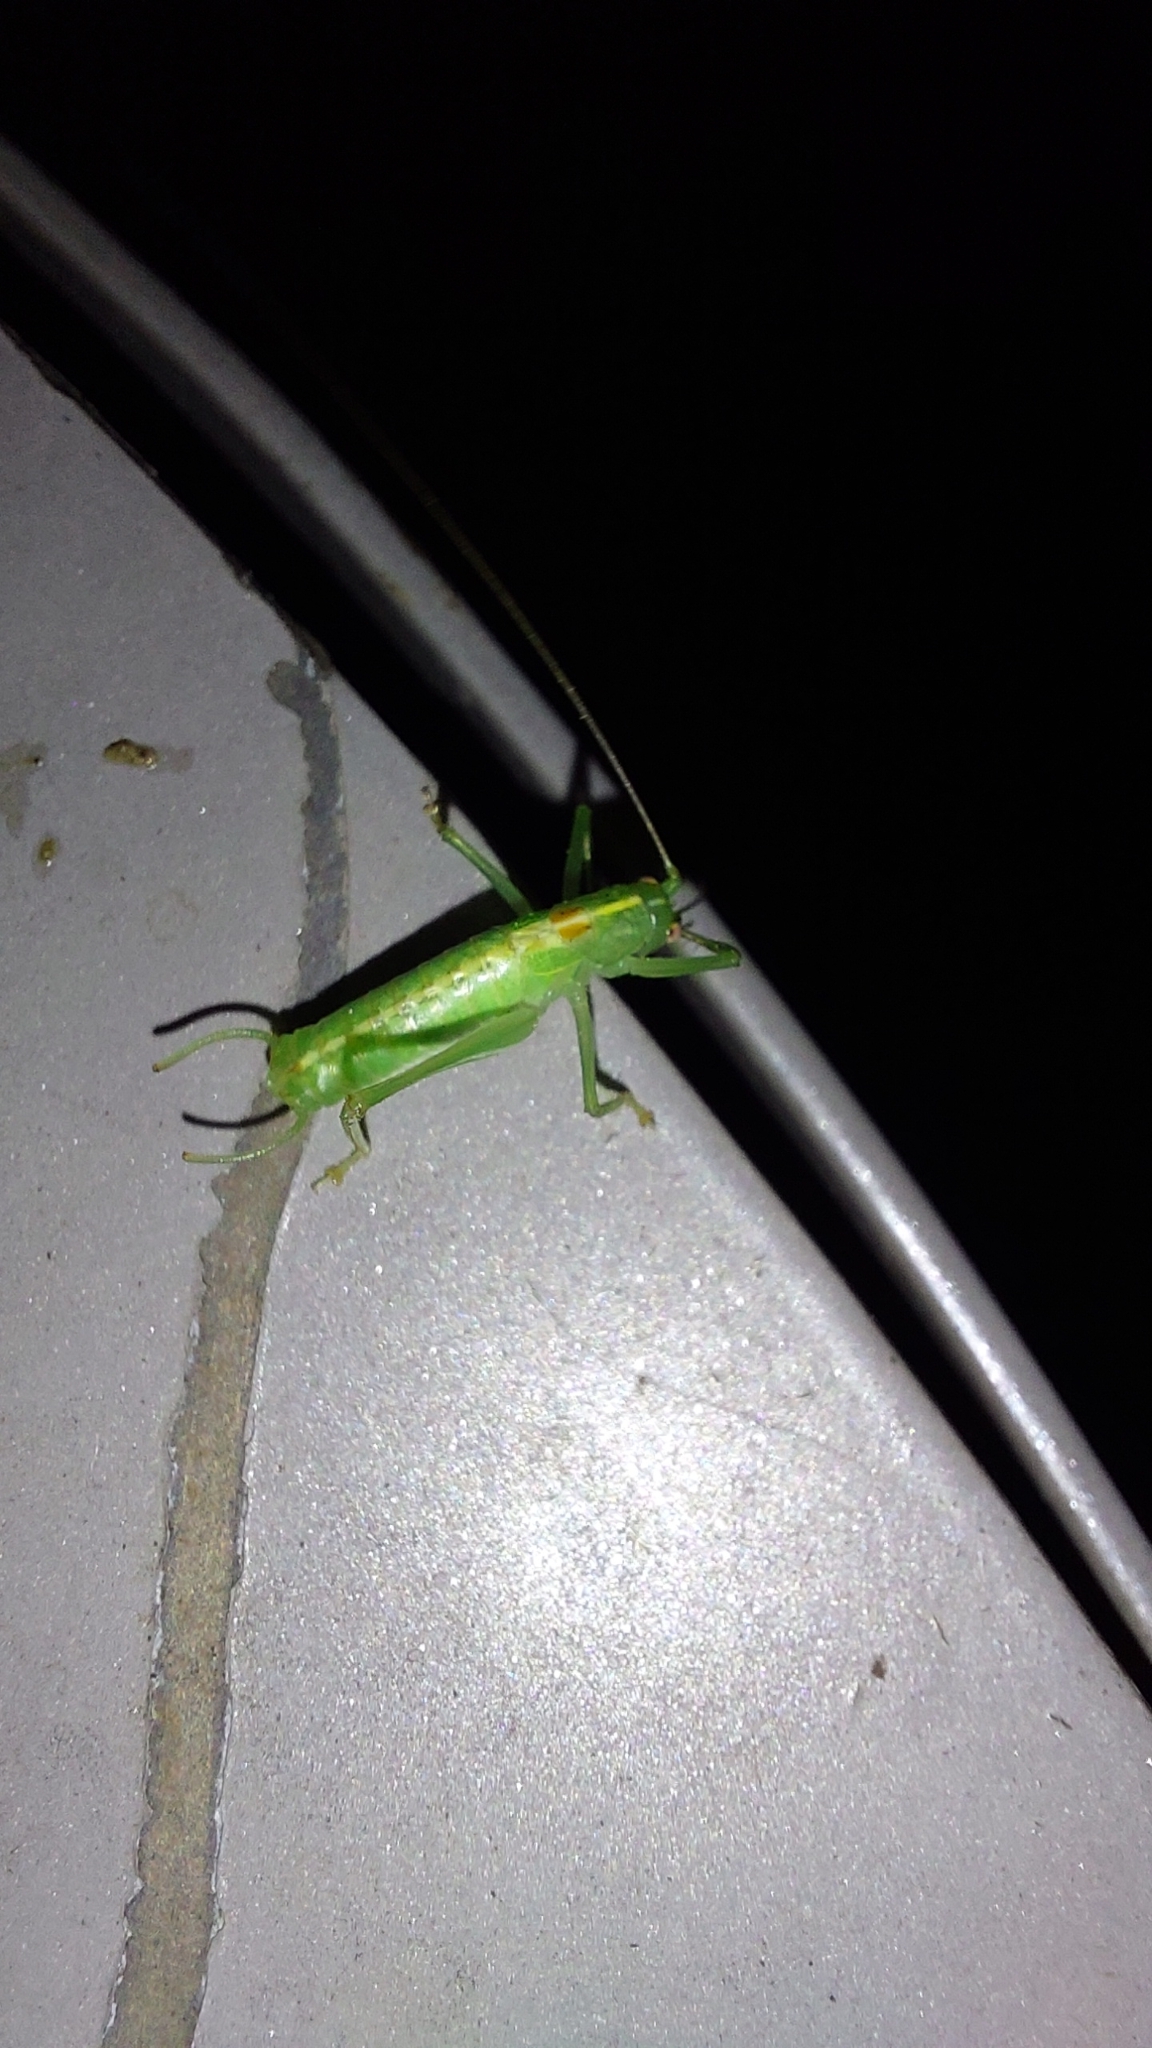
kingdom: Animalia
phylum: Arthropoda
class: Insecta
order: Orthoptera
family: Tettigoniidae
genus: Meconema
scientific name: Meconema meridionale
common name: Southern oak bush-cricket
